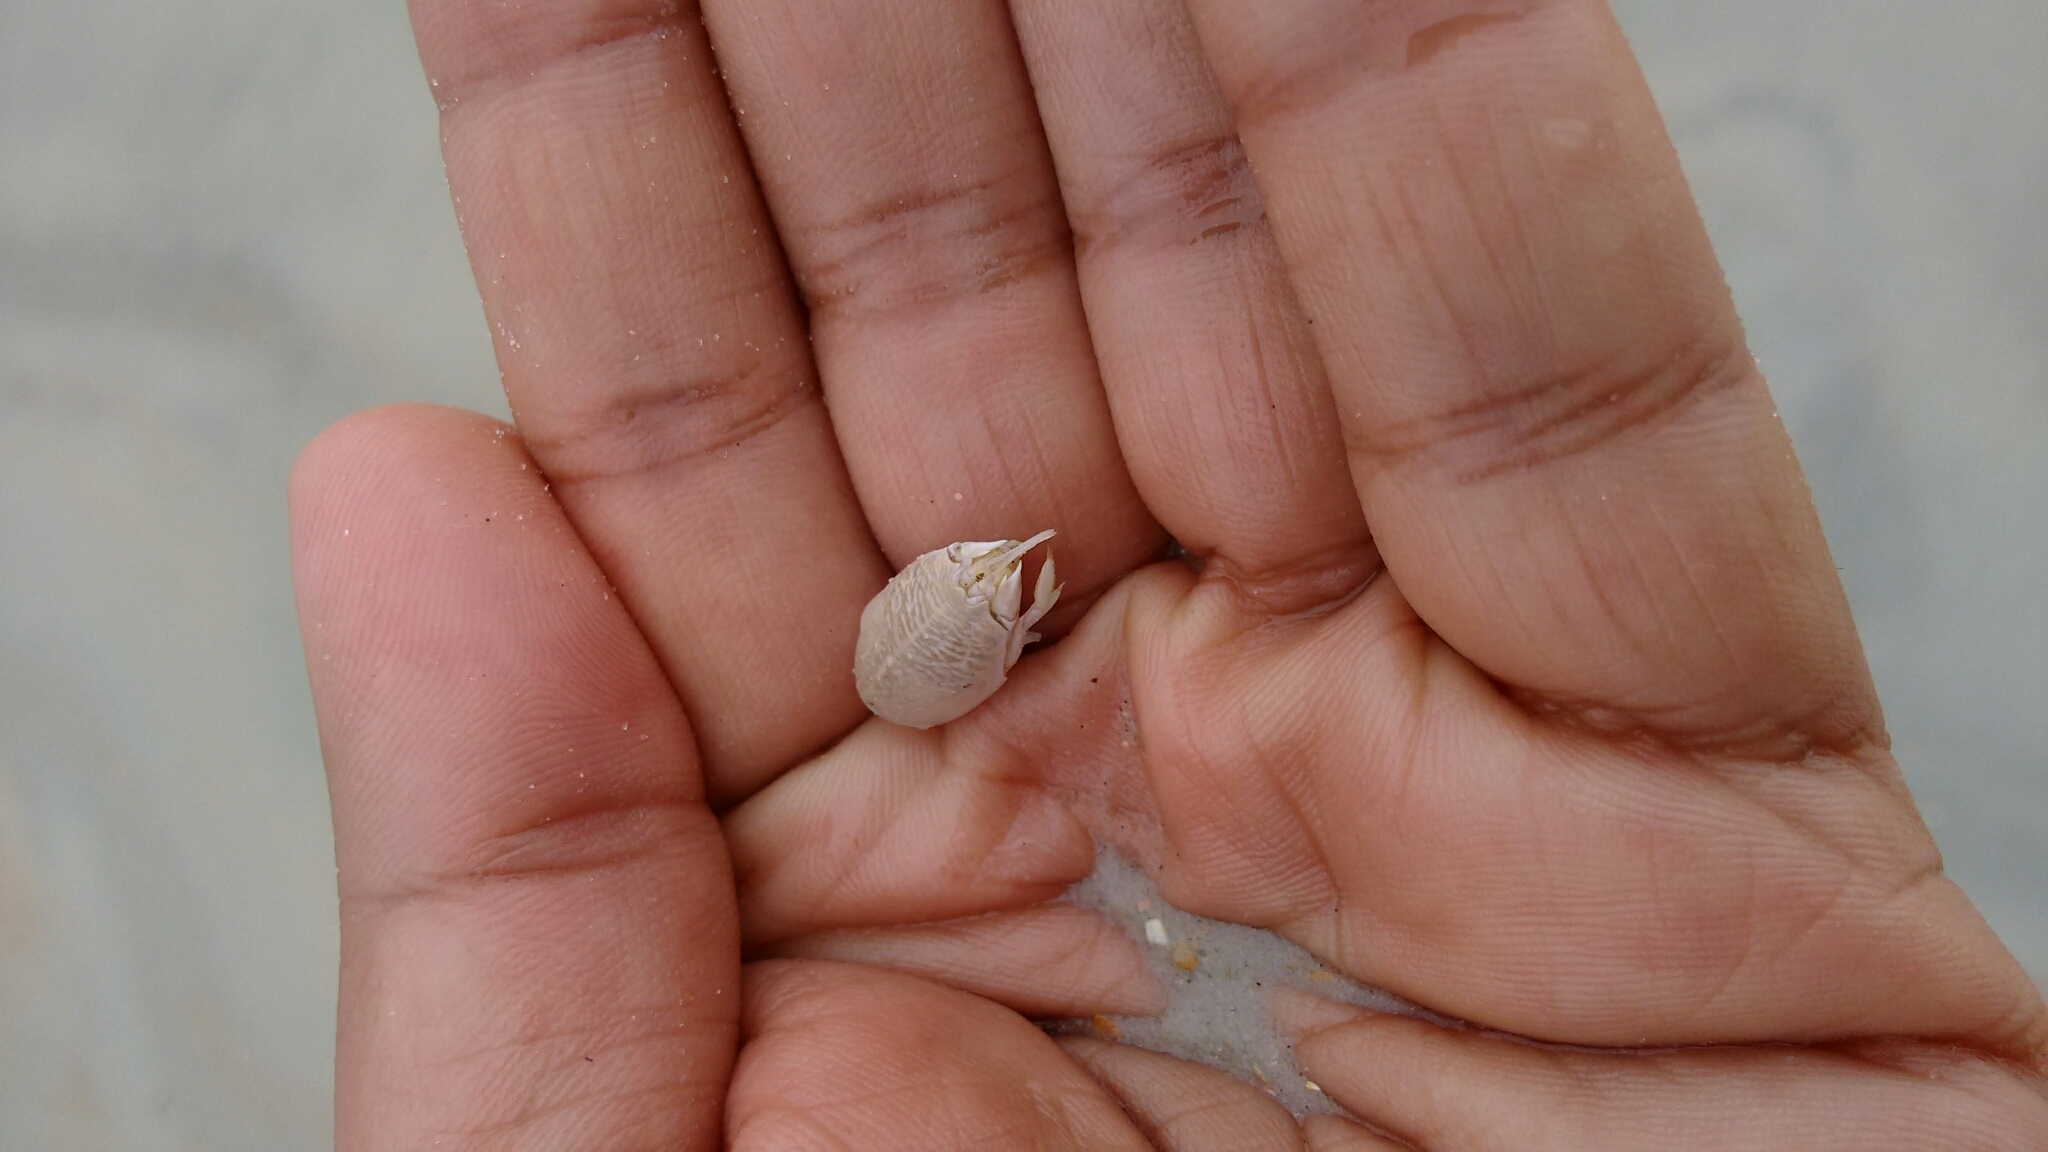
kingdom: Animalia
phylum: Arthropoda
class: Malacostraca
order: Decapoda
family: Hippidae
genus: Emerita
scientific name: Emerita talpoida
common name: Atlantic sand crab
